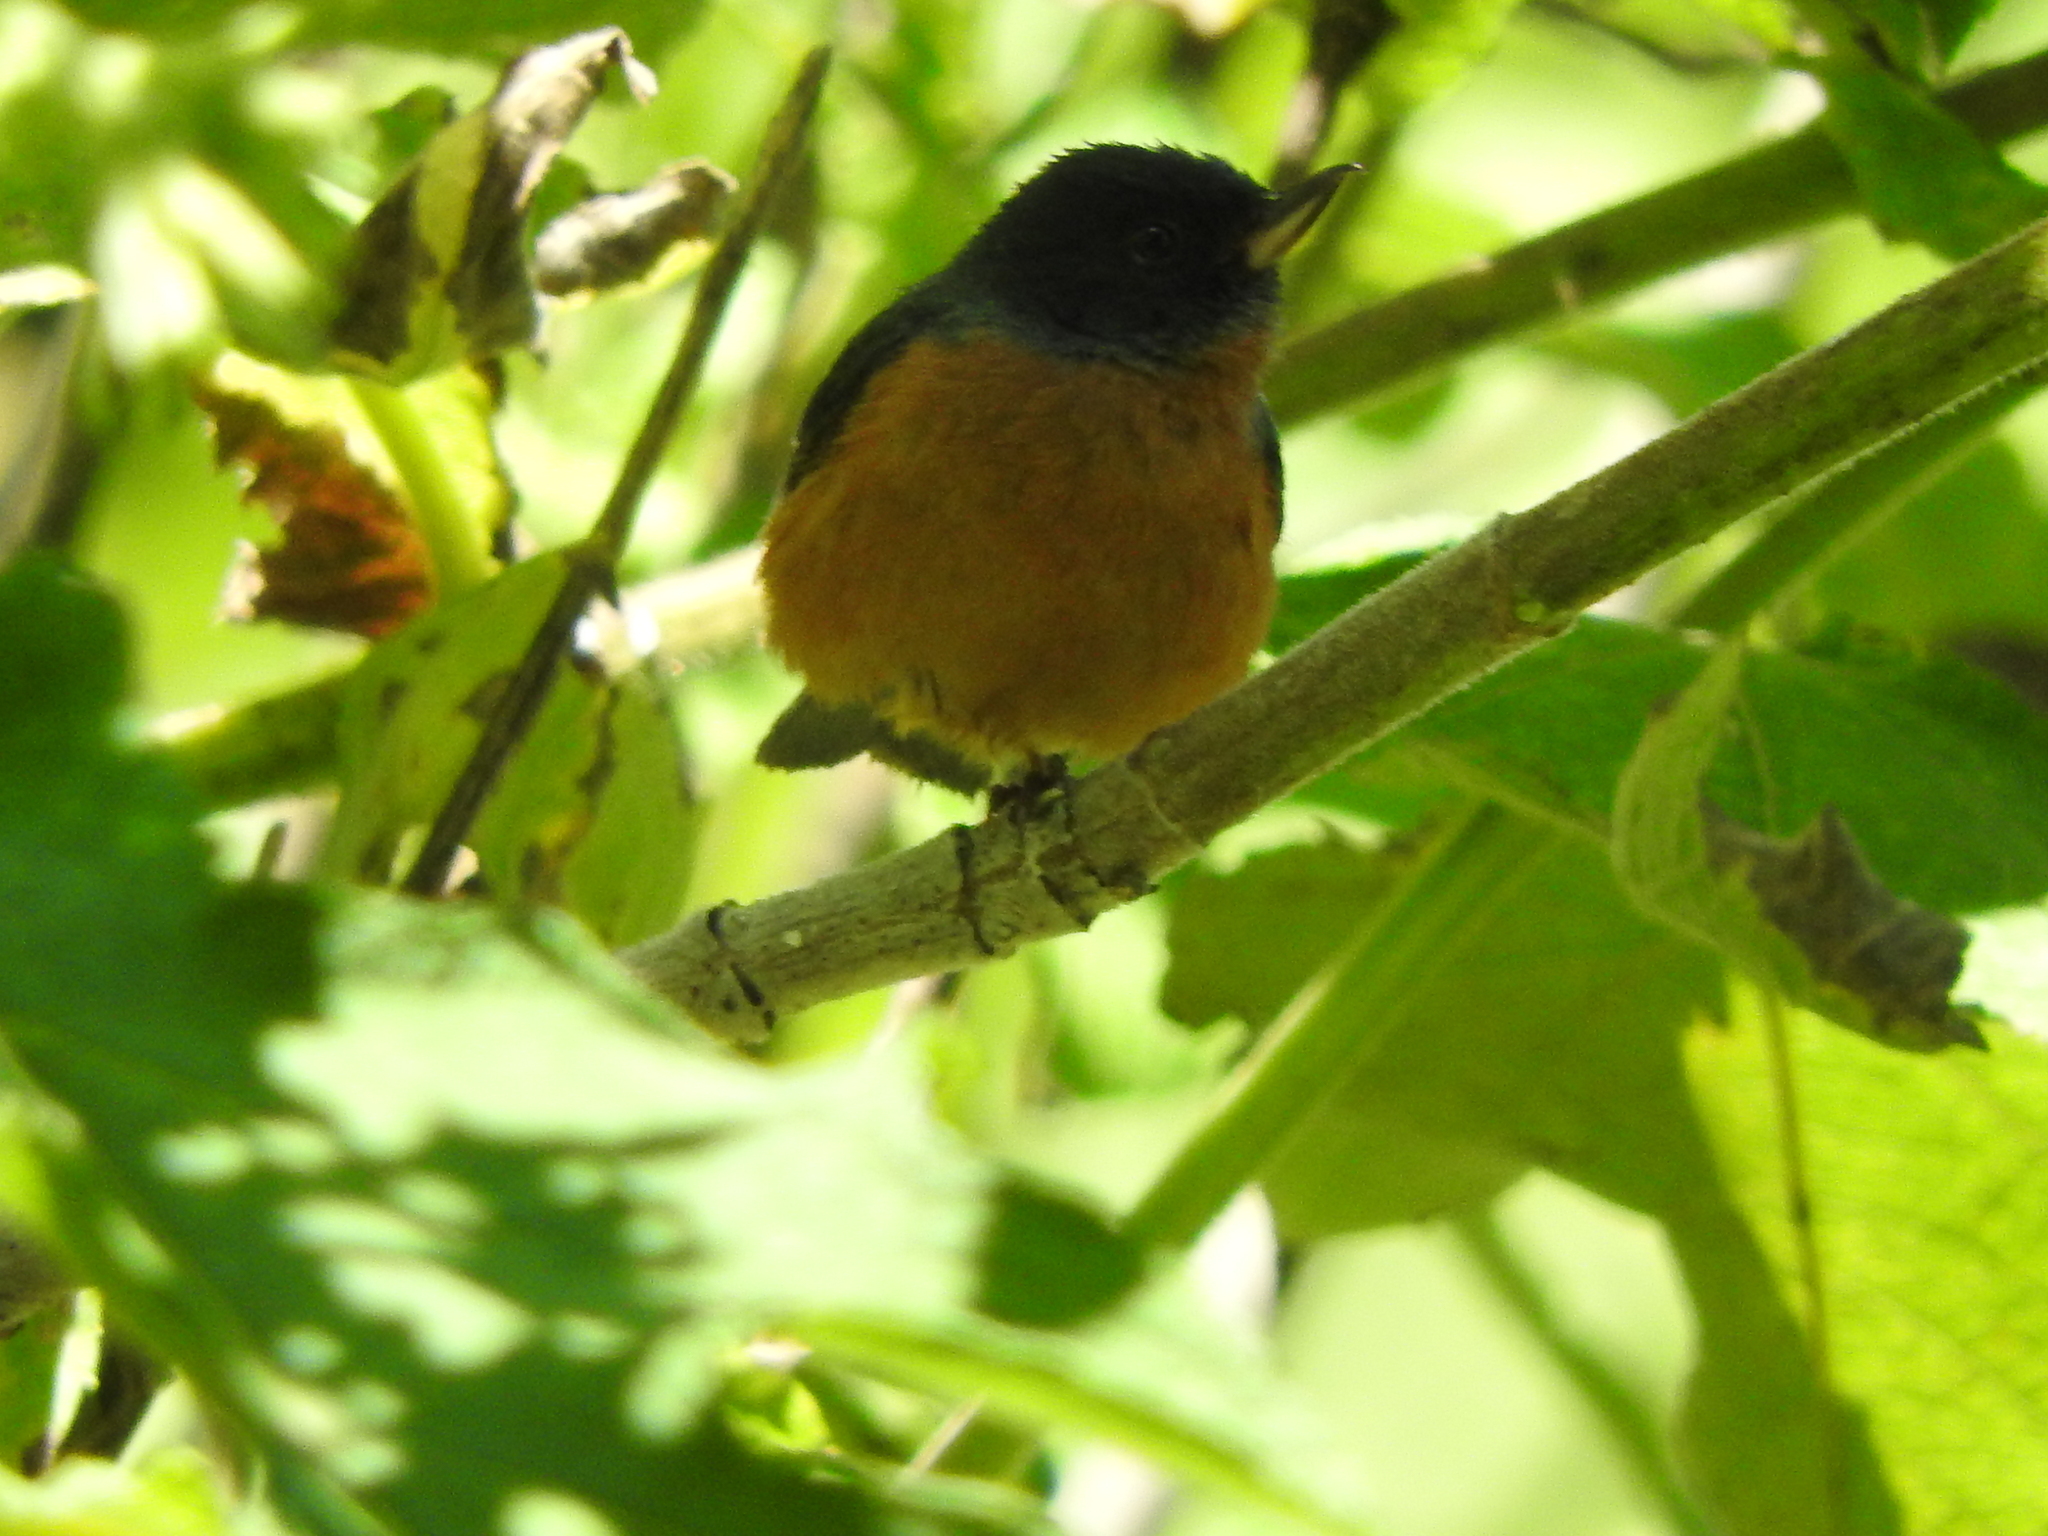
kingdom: Animalia
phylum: Chordata
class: Aves
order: Passeriformes
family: Thraupidae
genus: Diglossa
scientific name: Diglossa baritula
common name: Cinnamon-bellied flowerpiercer
